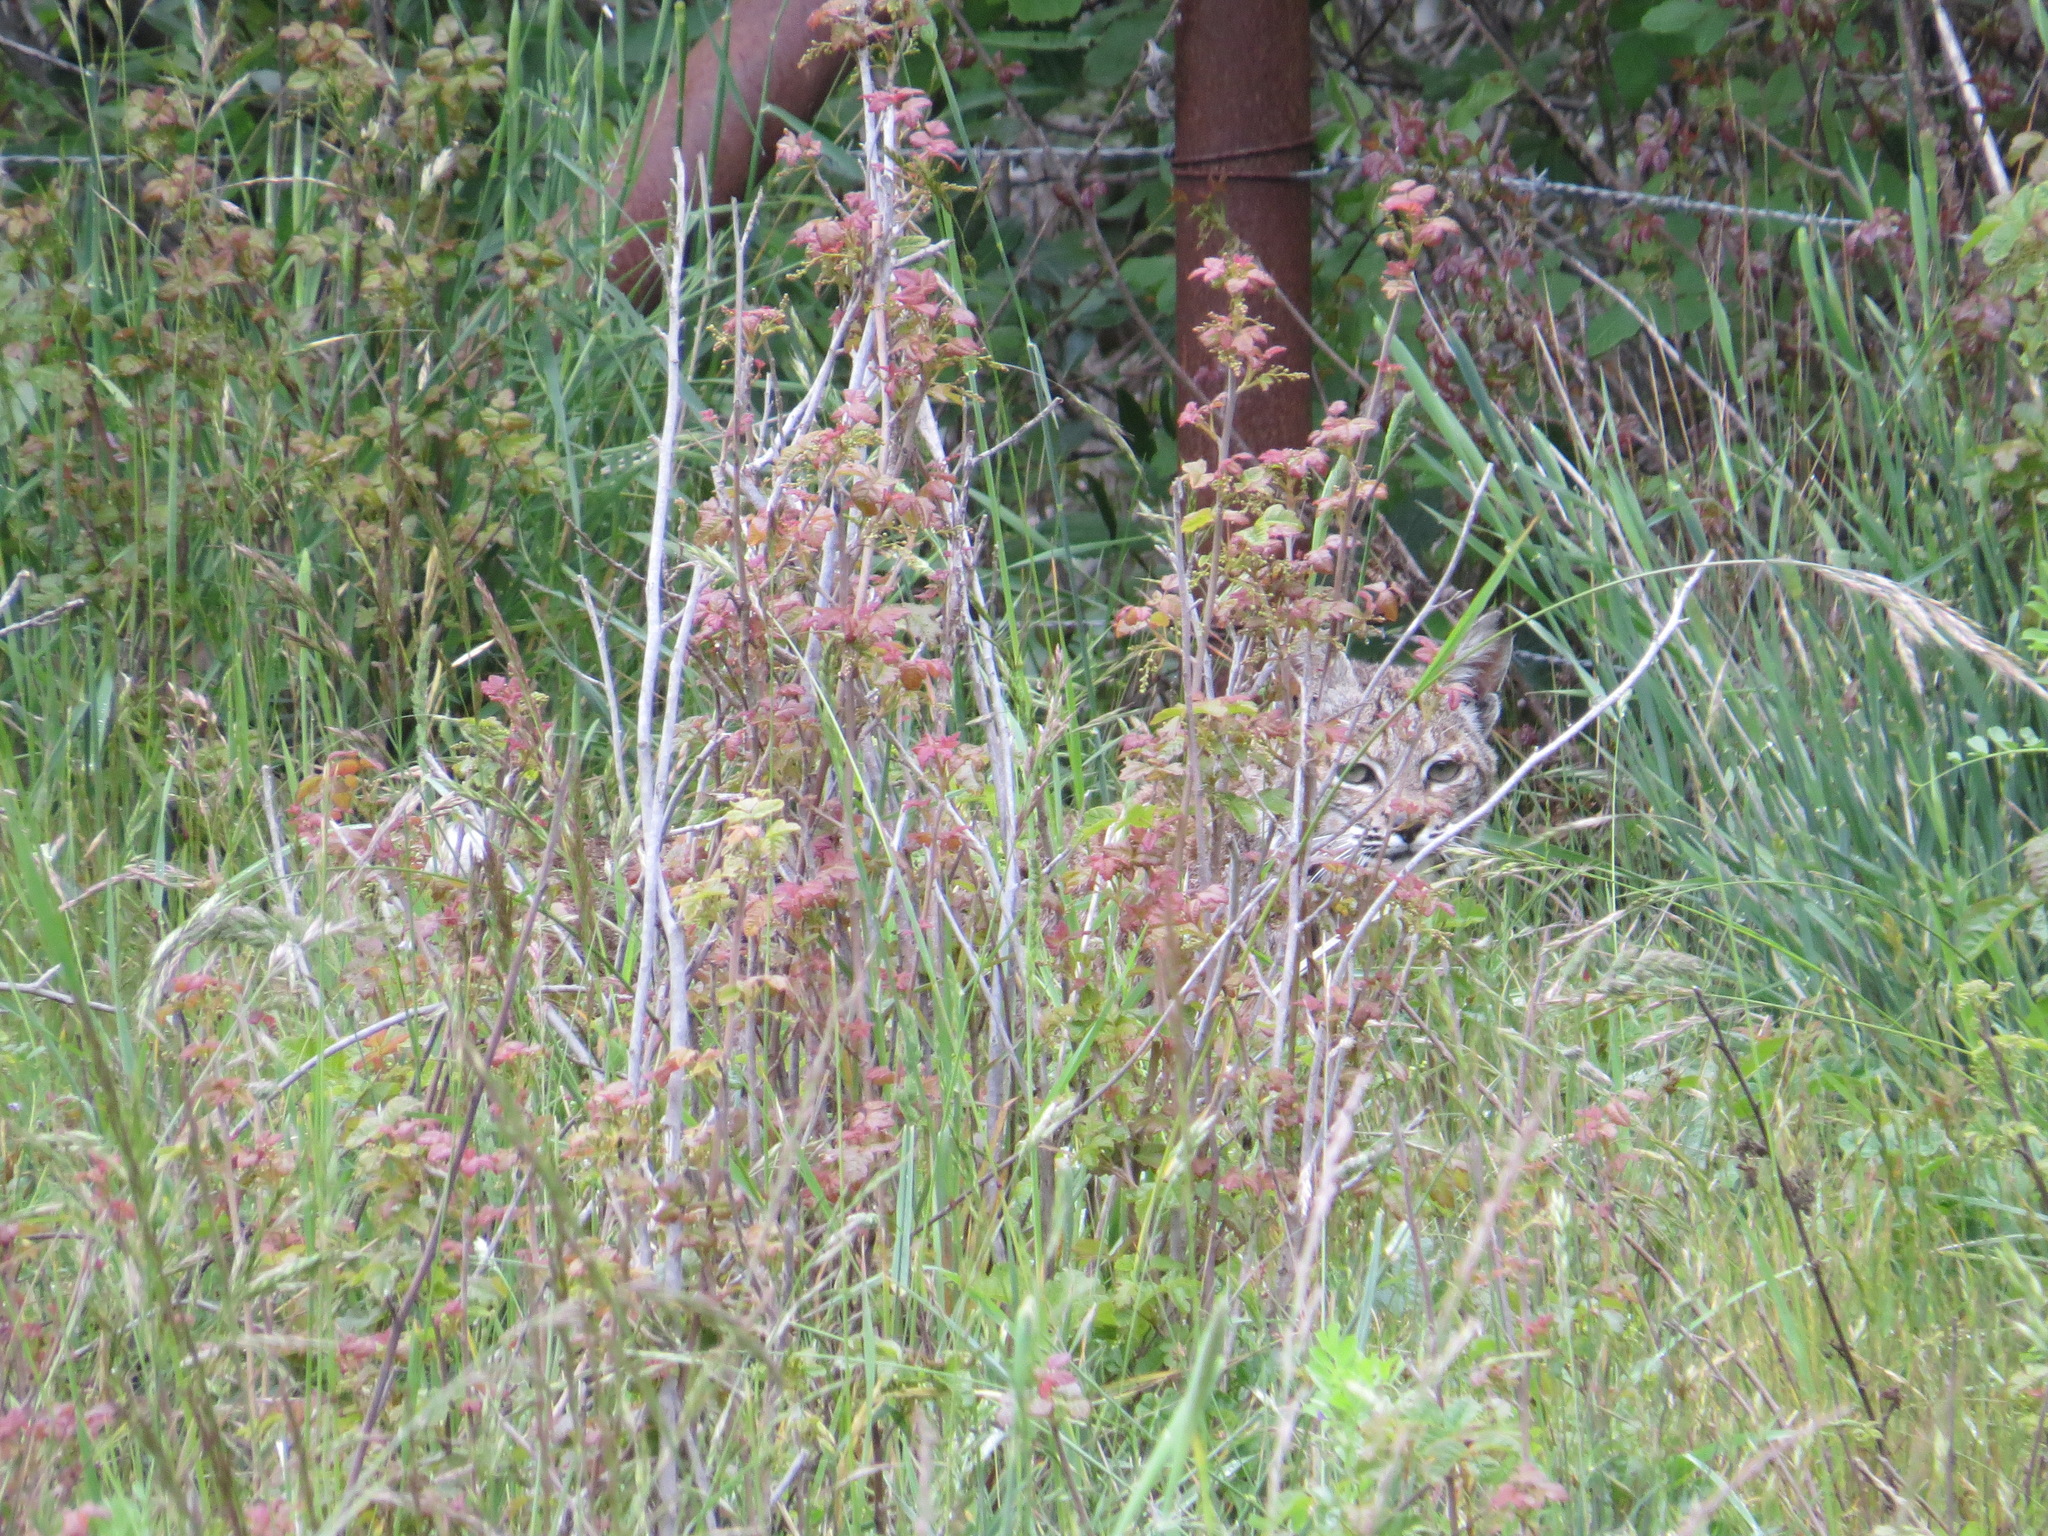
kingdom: Animalia
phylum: Chordata
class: Mammalia
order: Carnivora
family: Felidae
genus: Lynx
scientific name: Lynx rufus
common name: Bobcat
